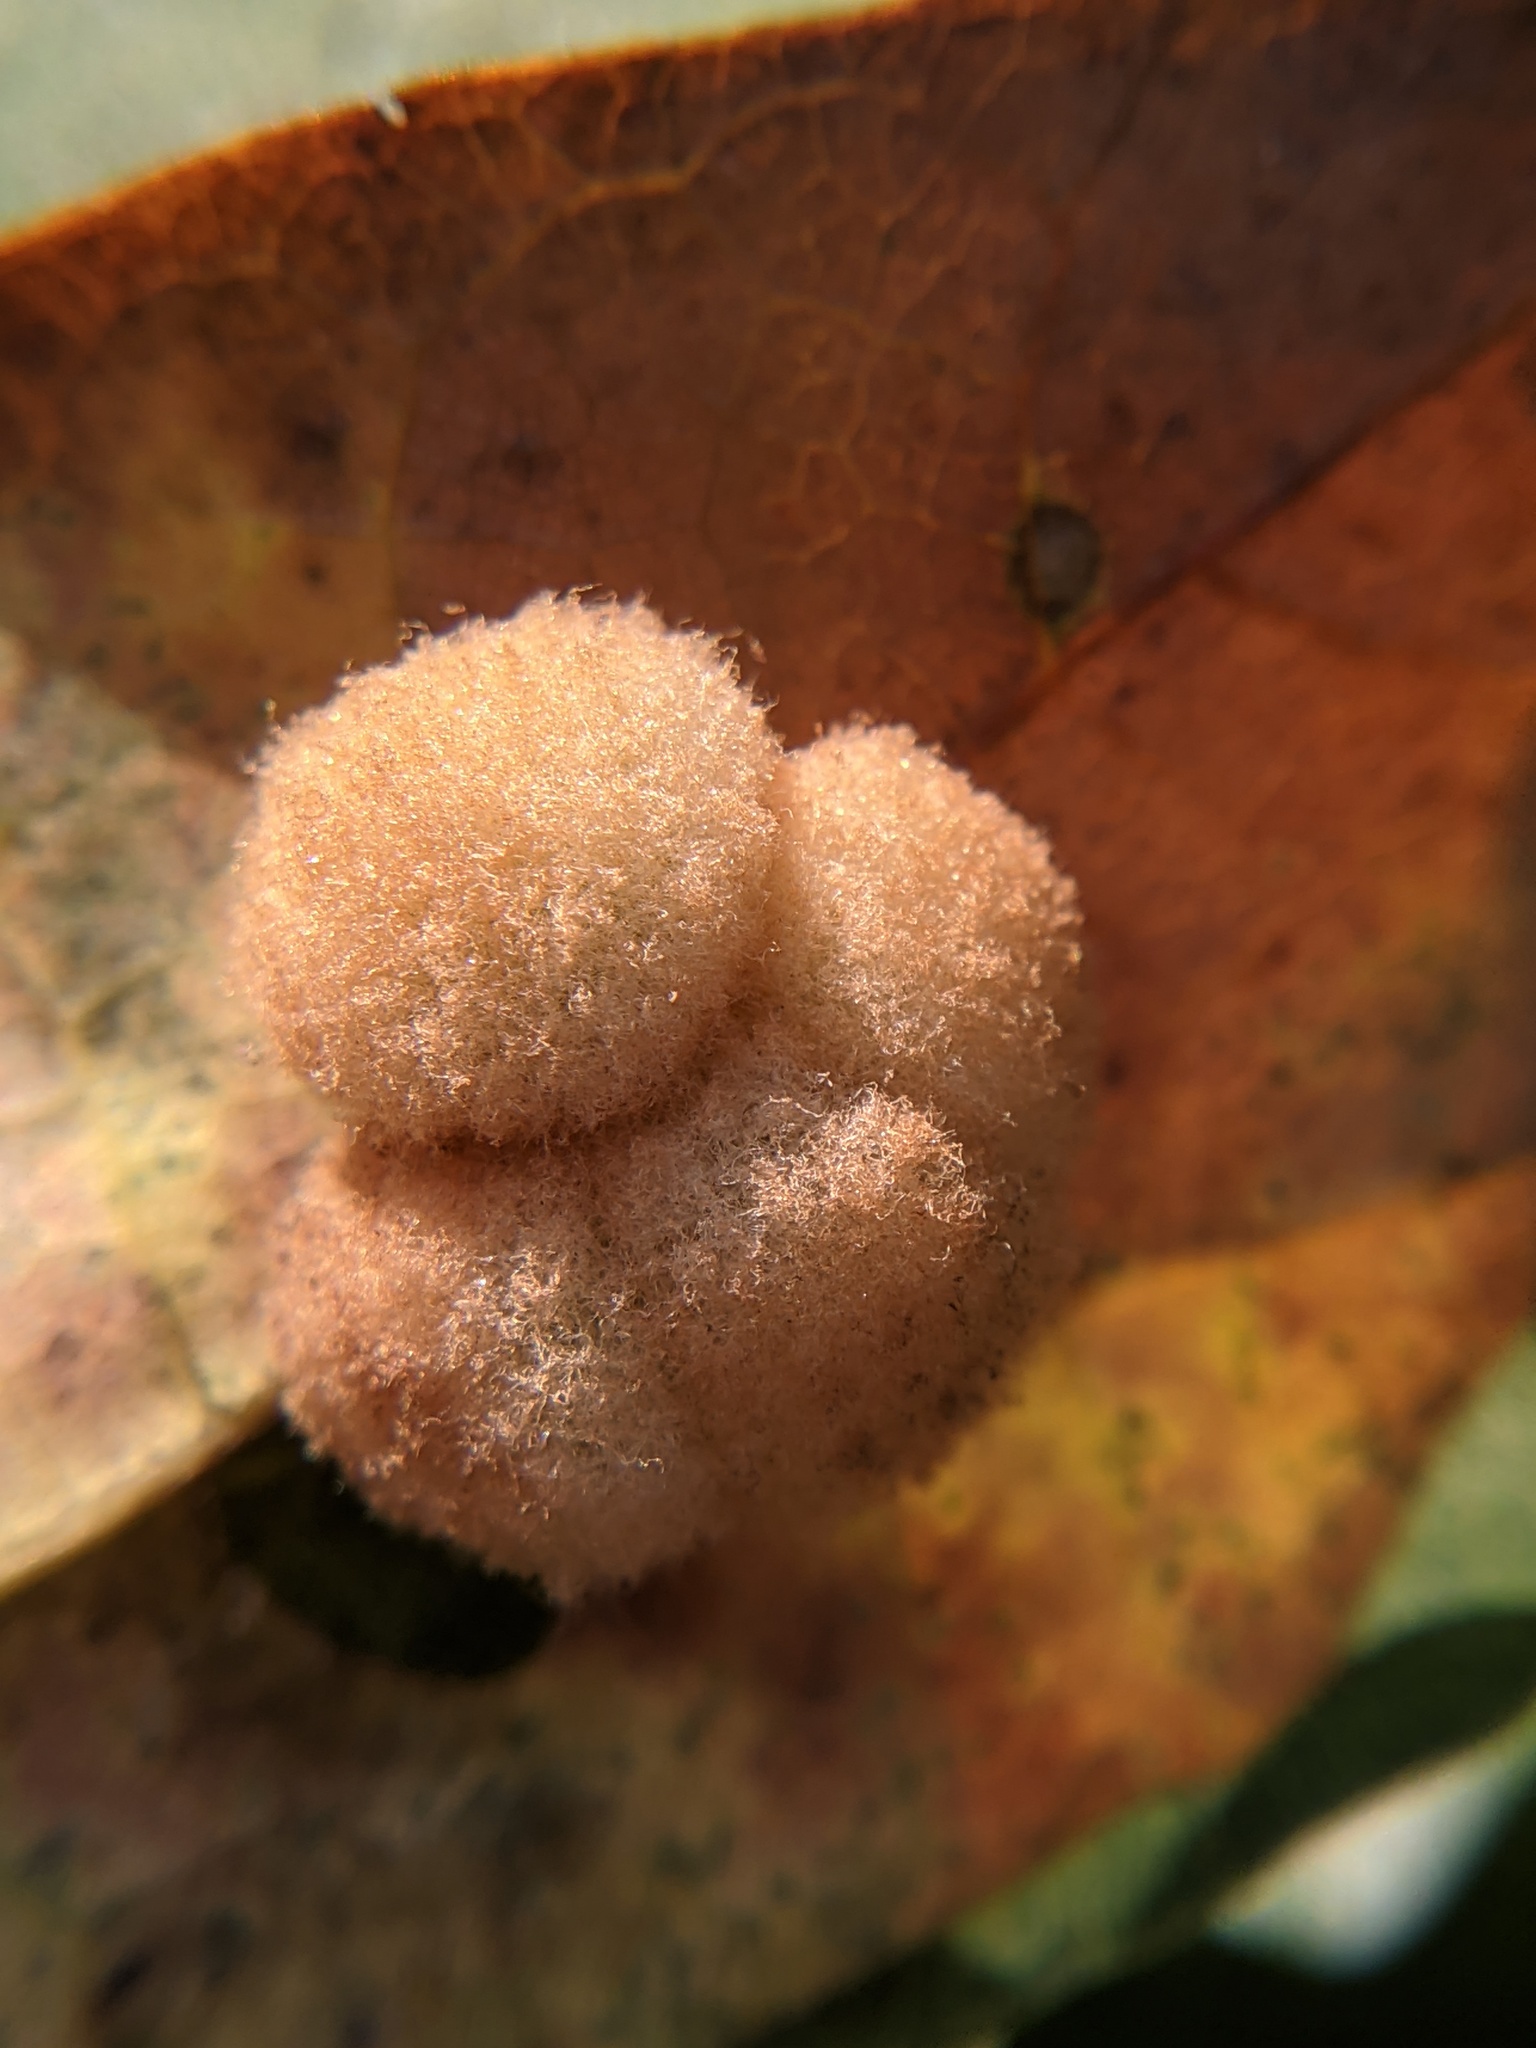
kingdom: Animalia
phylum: Arthropoda
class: Insecta
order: Hymenoptera
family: Cynipidae
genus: Callirhytis
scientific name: Callirhytis
